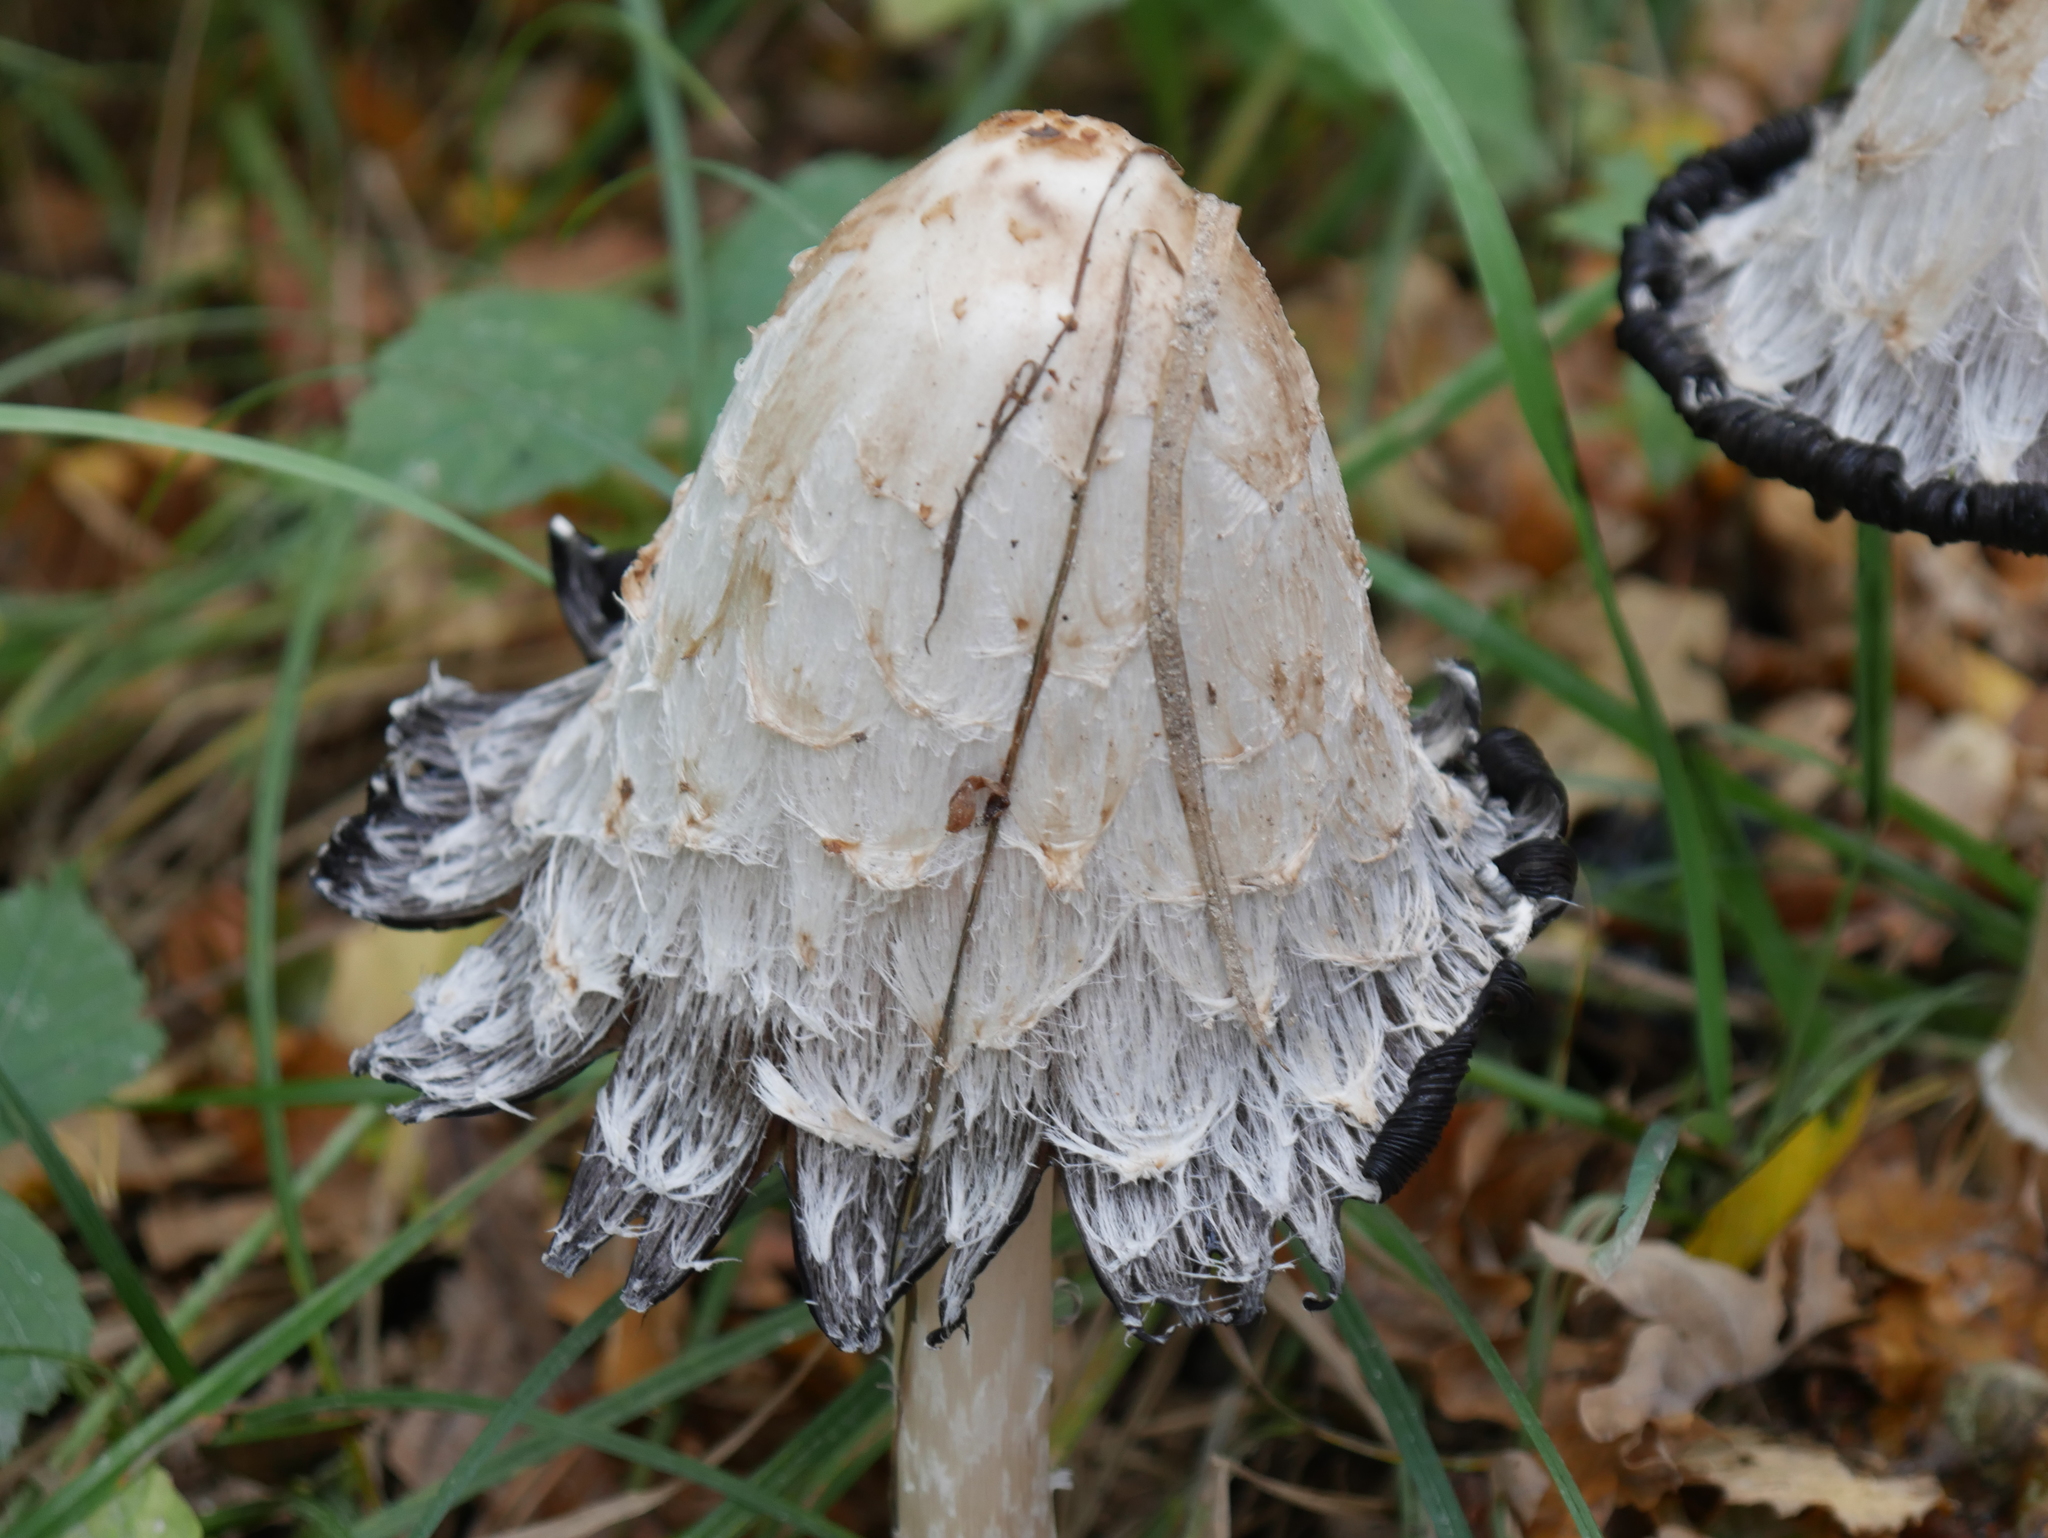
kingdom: Fungi
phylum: Basidiomycota
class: Agaricomycetes
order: Agaricales
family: Agaricaceae
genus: Coprinus
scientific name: Coprinus comatus
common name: Lawyer's wig
